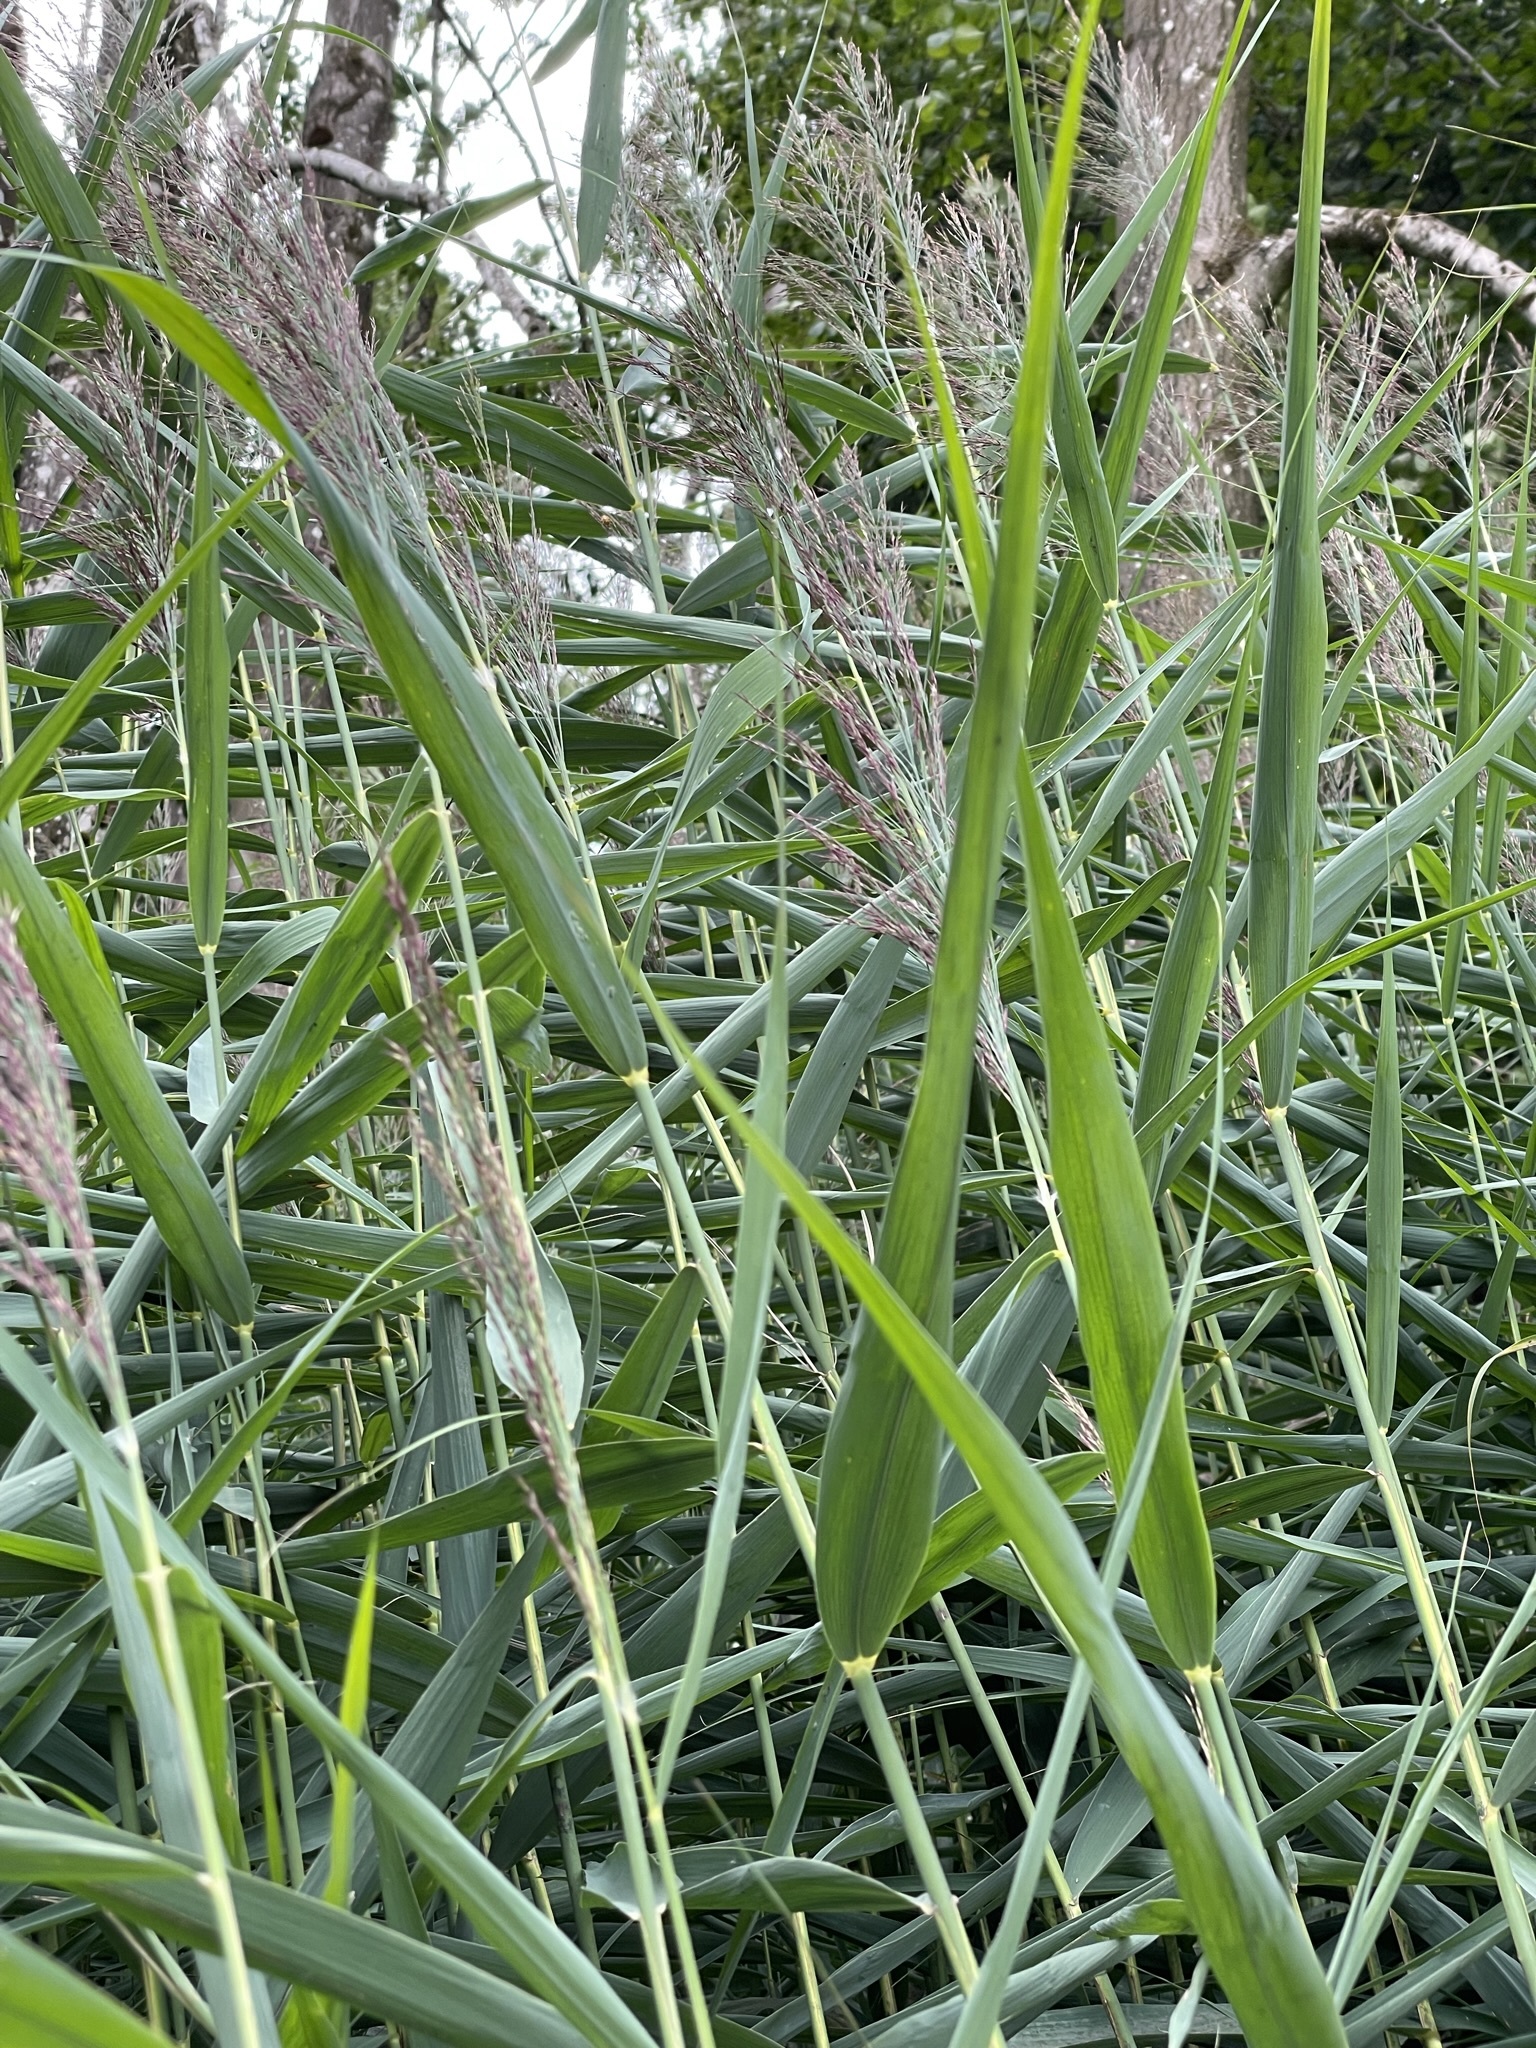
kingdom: Plantae
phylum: Tracheophyta
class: Liliopsida
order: Poales
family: Poaceae
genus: Phragmites
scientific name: Phragmites australis
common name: Common reed
